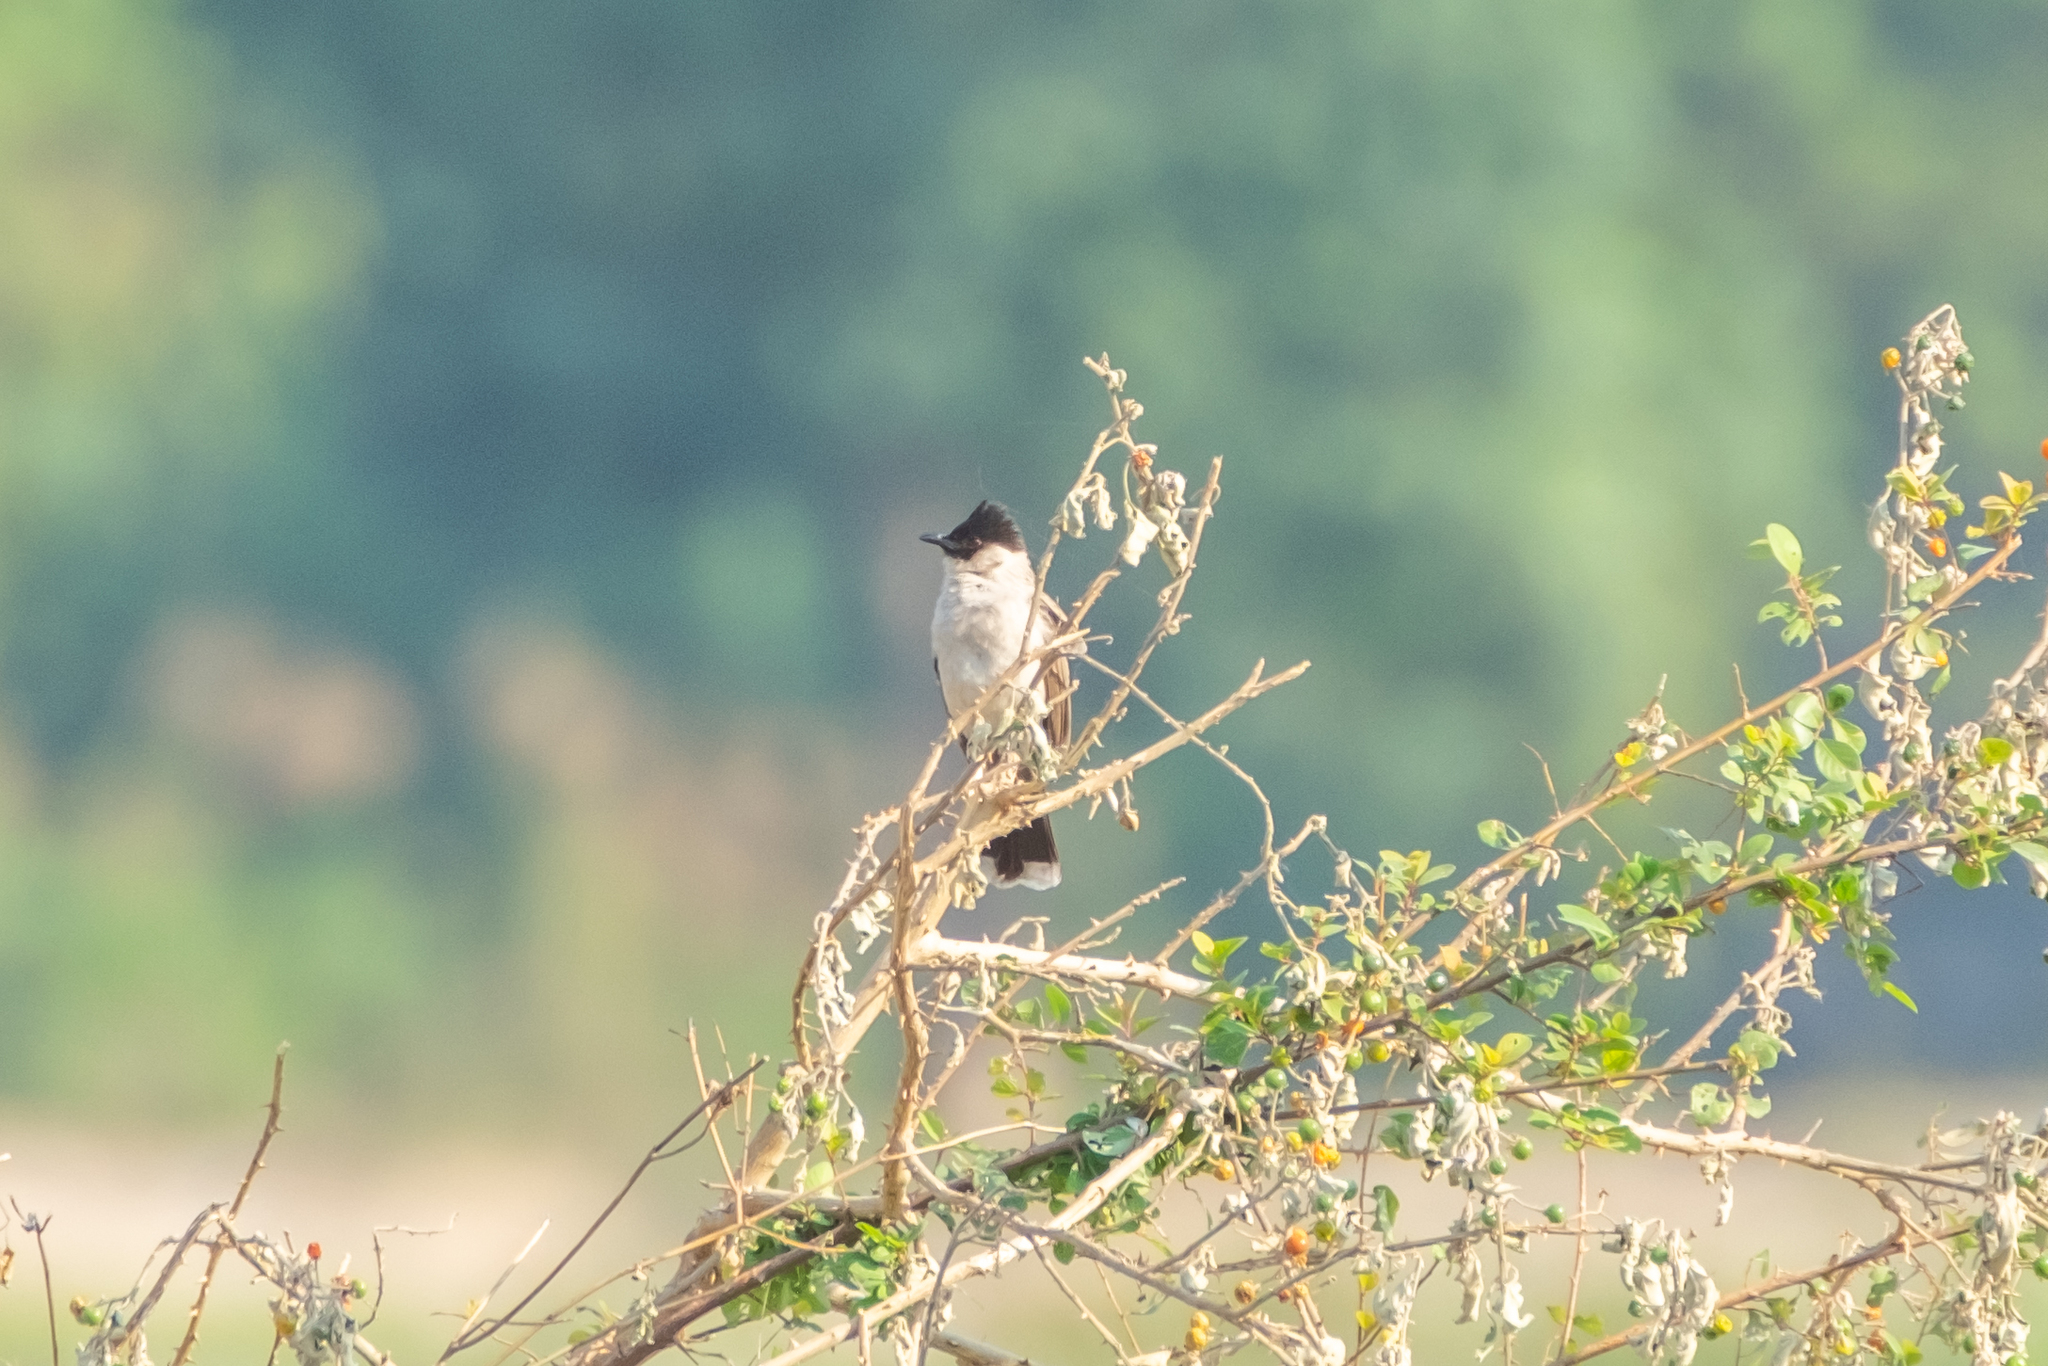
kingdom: Animalia
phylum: Chordata
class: Aves
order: Passeriformes
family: Pycnonotidae
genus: Pycnonotus
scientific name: Pycnonotus aurigaster
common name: Sooty-headed bulbul
